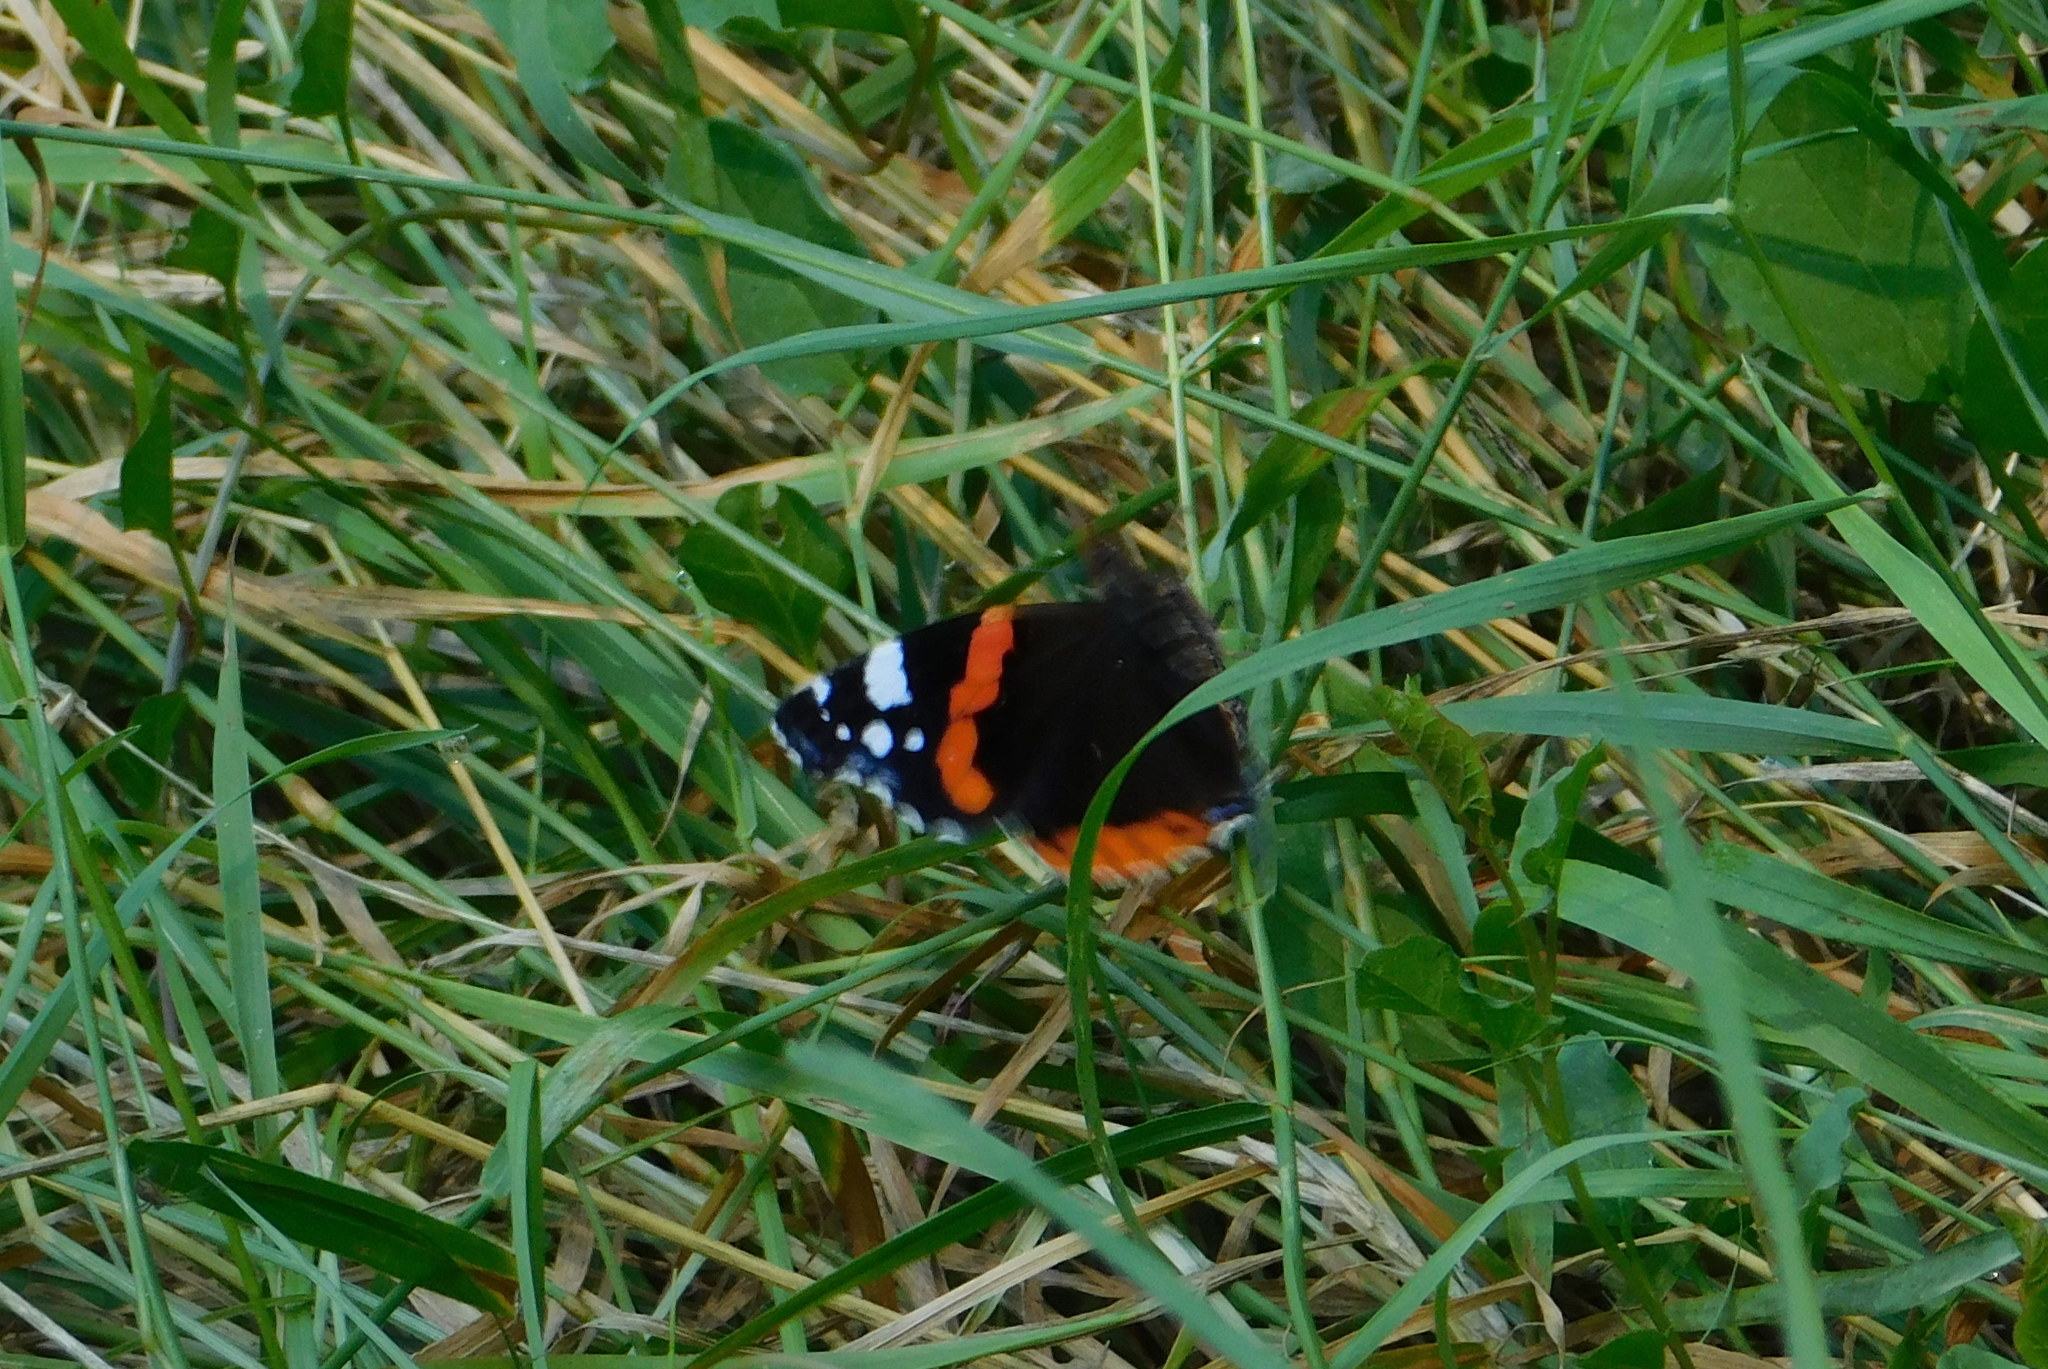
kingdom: Animalia
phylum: Arthropoda
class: Insecta
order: Lepidoptera
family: Nymphalidae
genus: Vanessa
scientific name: Vanessa atalanta
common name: Red admiral
